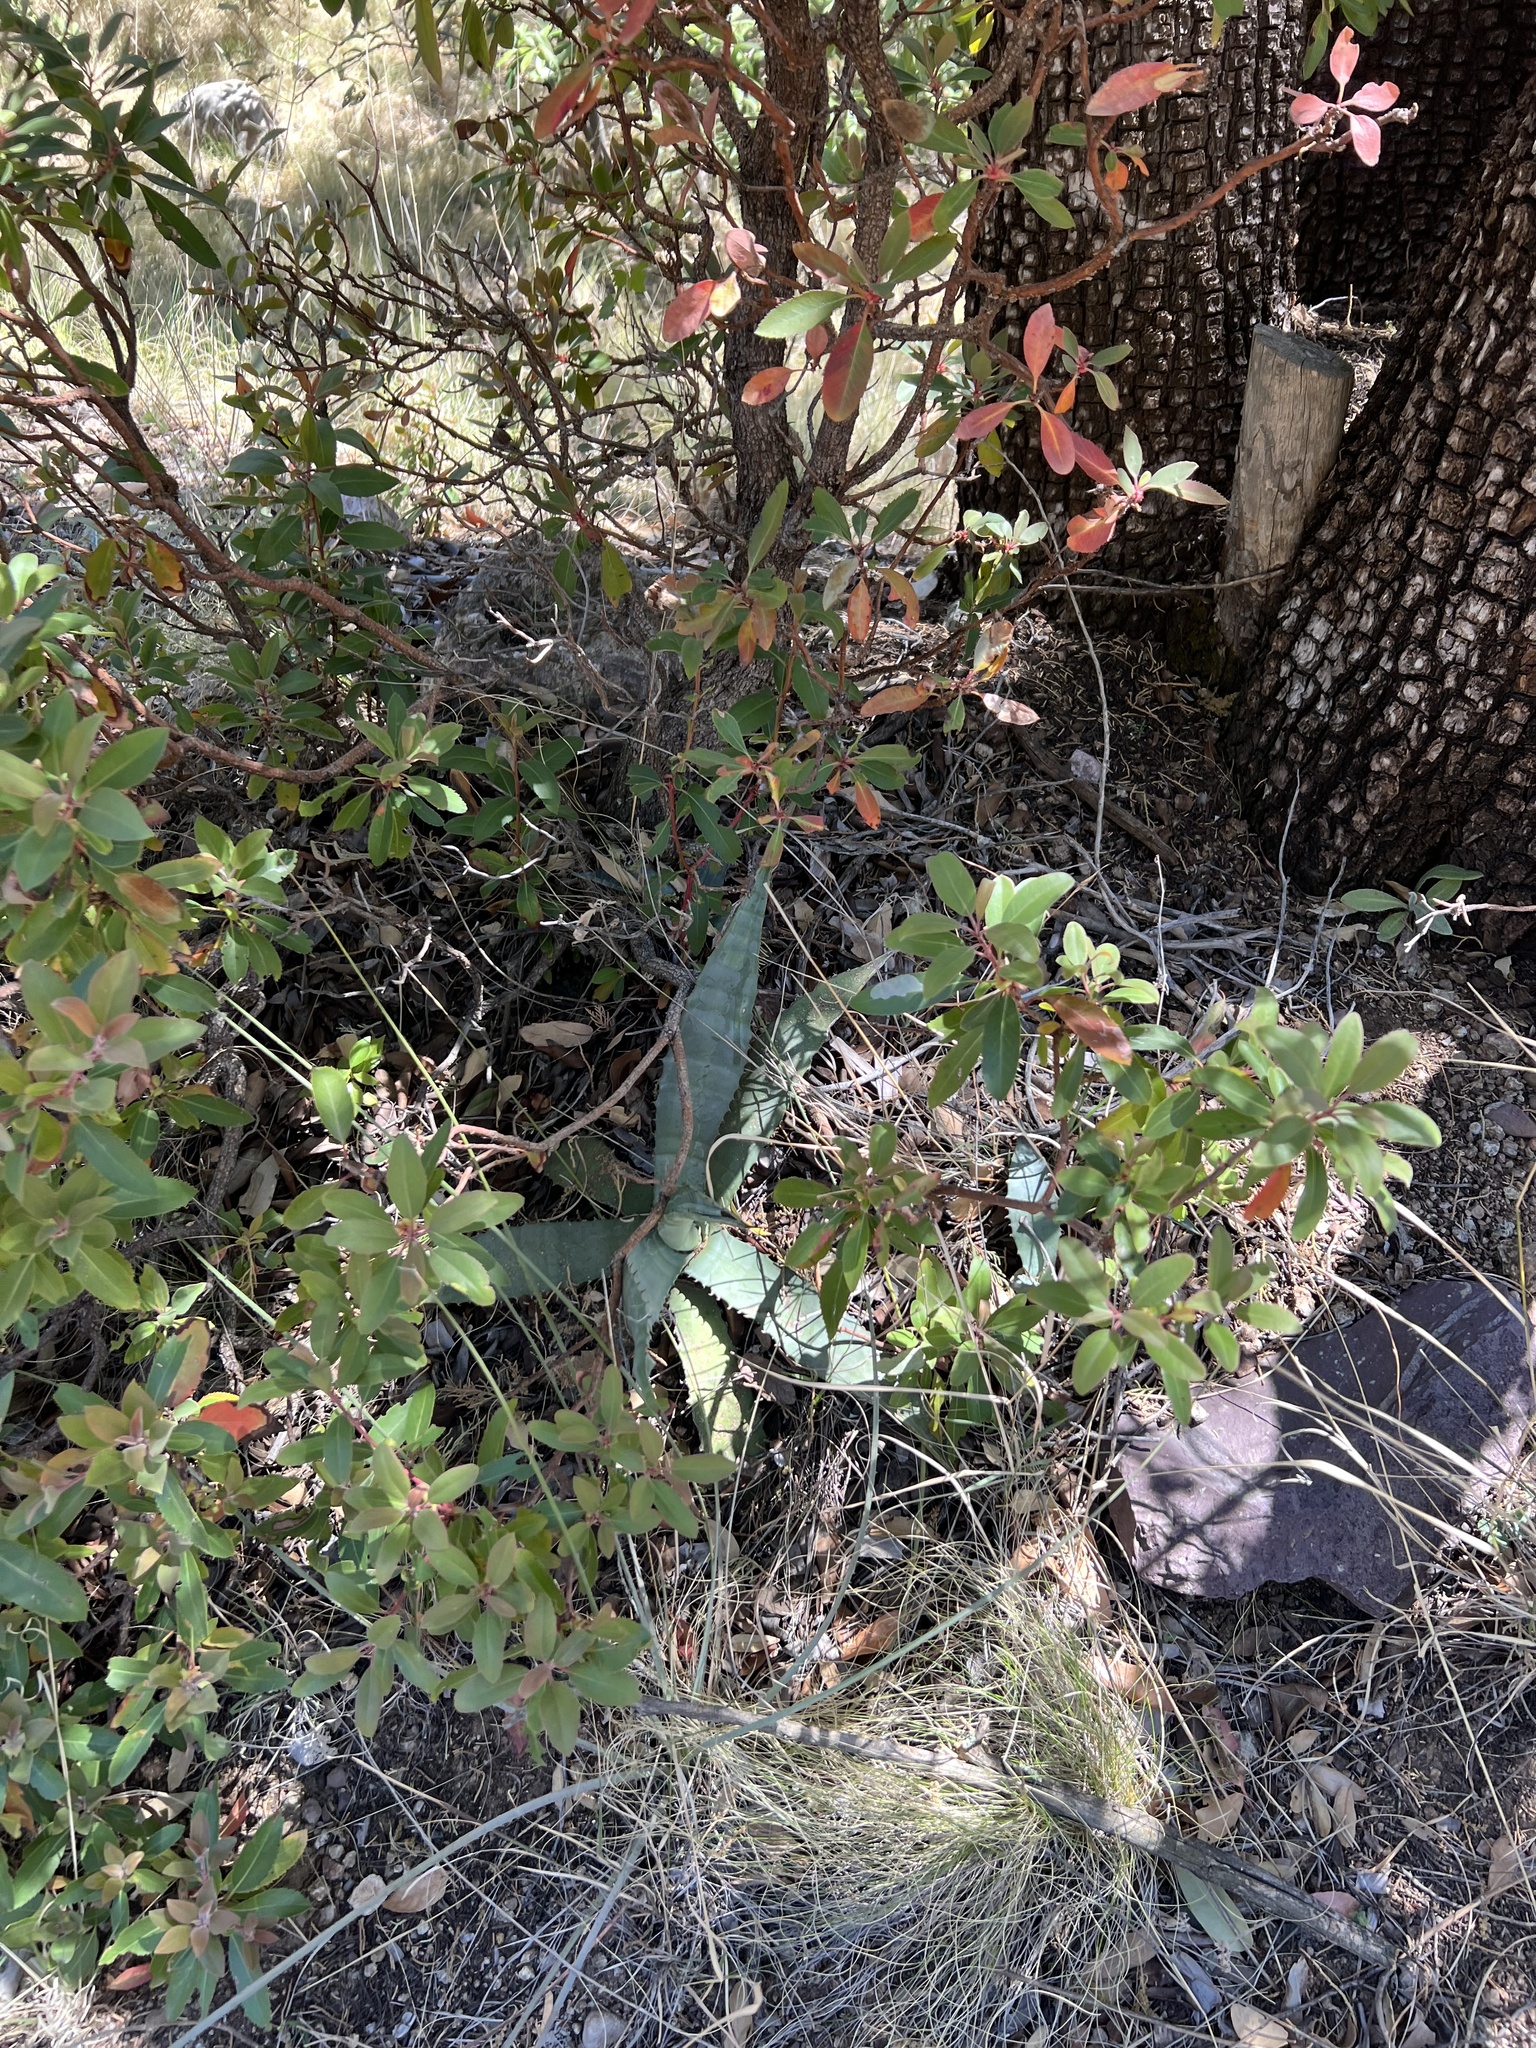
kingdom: Plantae
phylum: Tracheophyta
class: Liliopsida
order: Asparagales
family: Asparagaceae
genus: Agave
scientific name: Agave palmeri
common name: Palmer agave
